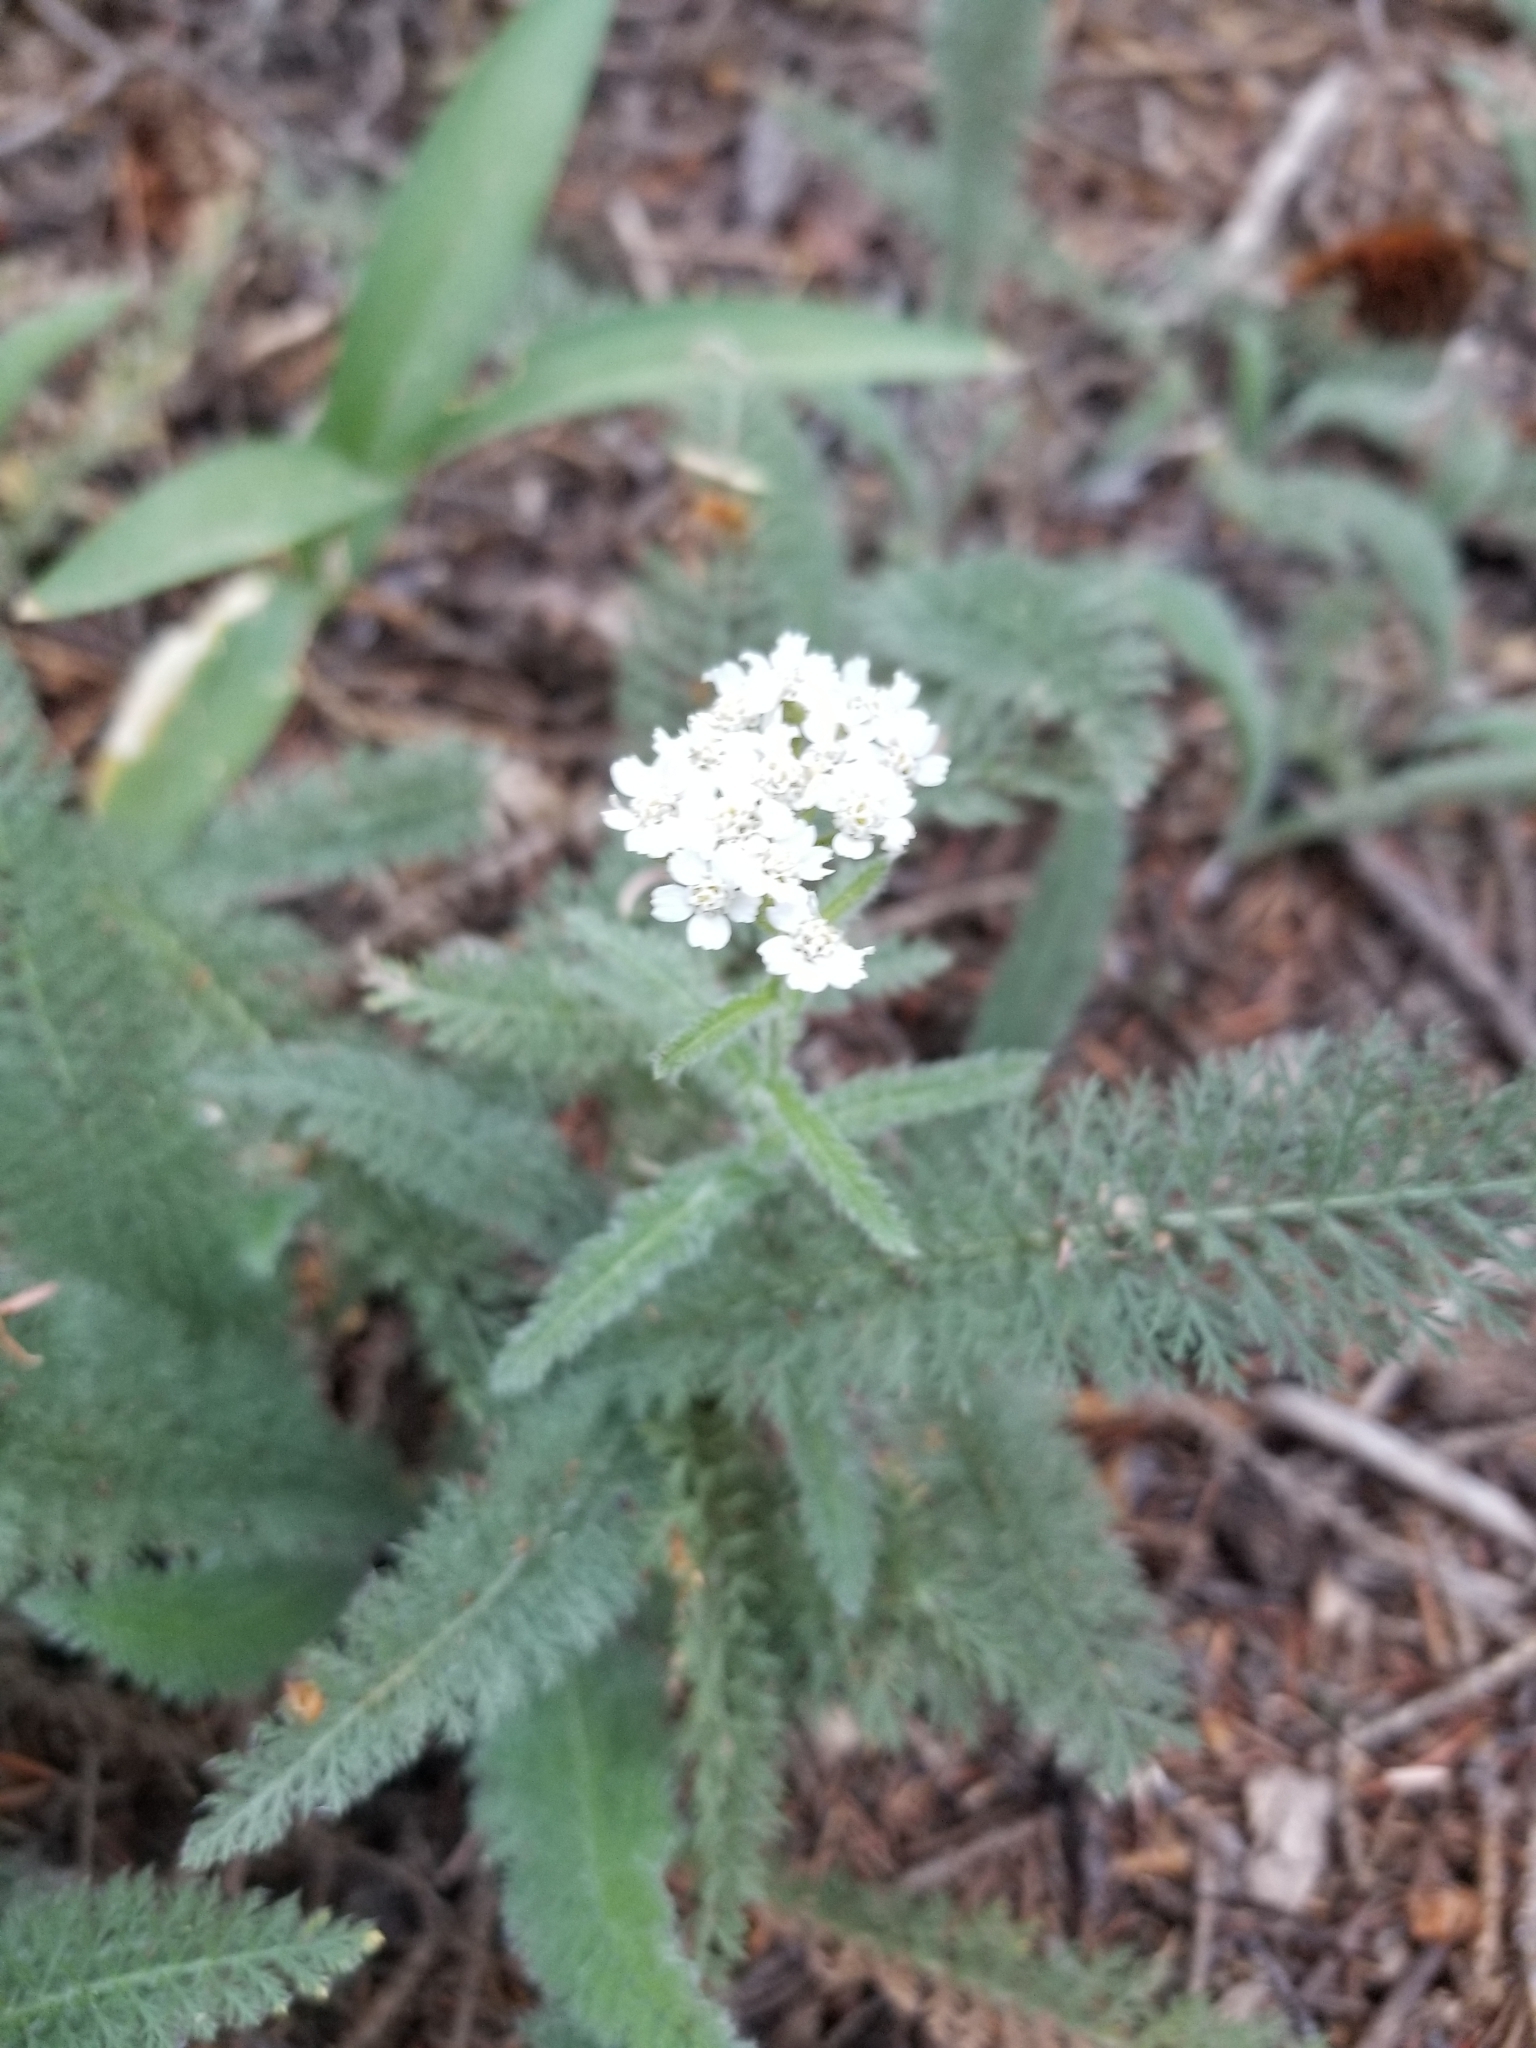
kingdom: Plantae
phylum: Tracheophyta
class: Magnoliopsida
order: Asterales
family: Asteraceae
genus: Achillea
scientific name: Achillea millefolium
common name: Yarrow
